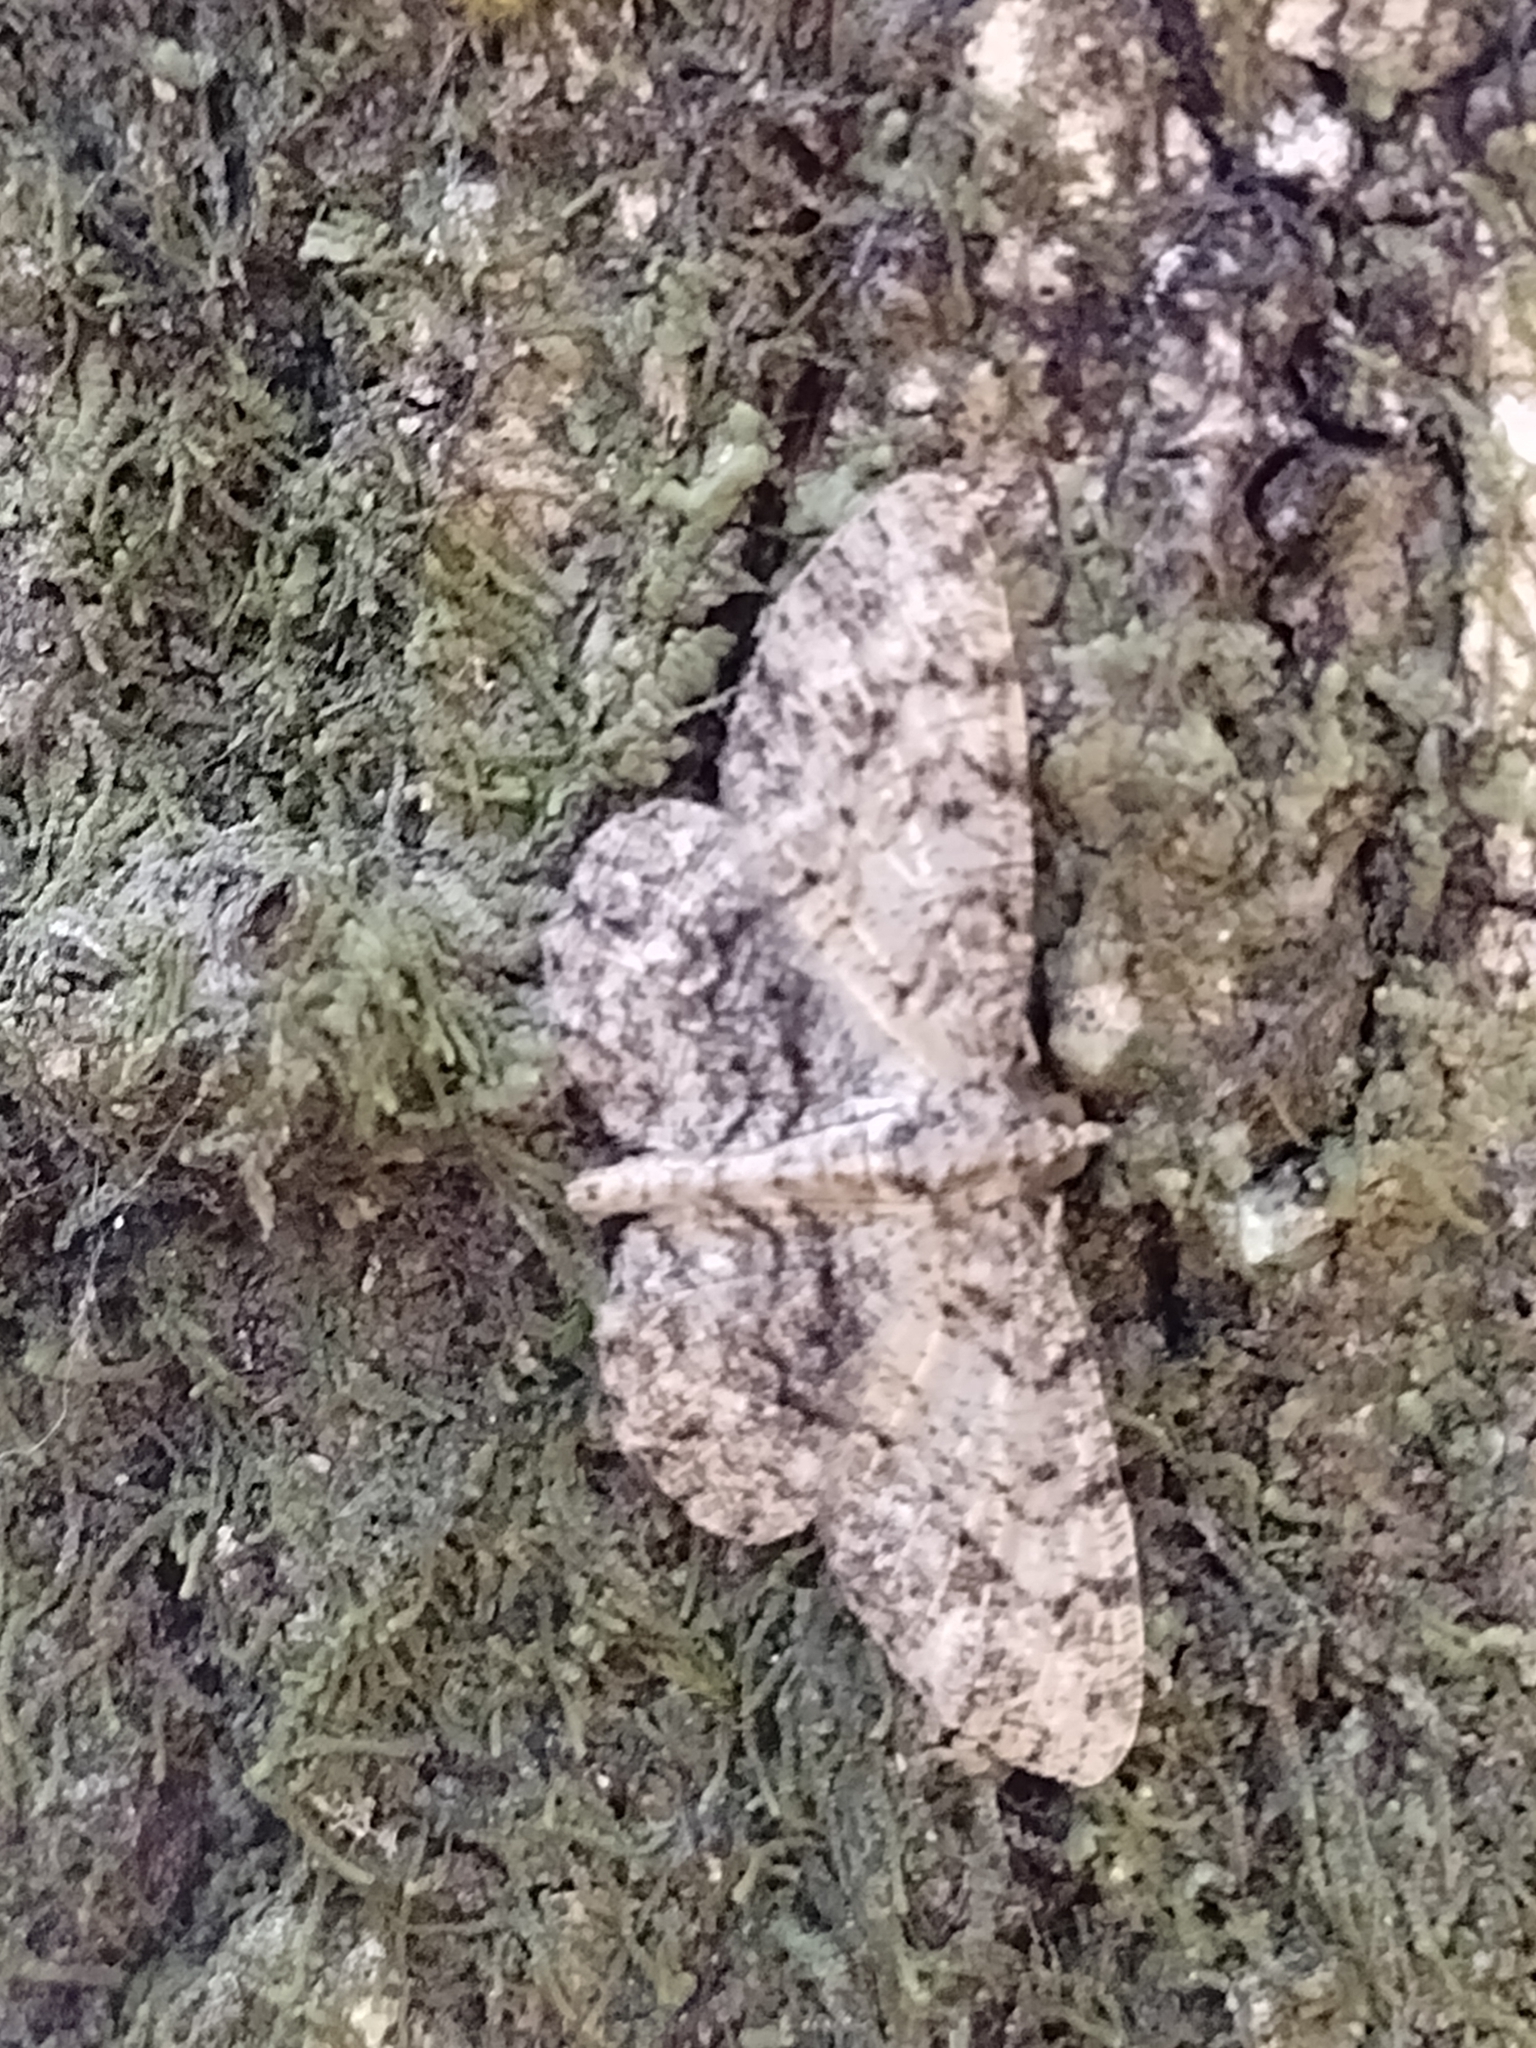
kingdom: Animalia
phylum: Arthropoda
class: Insecta
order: Lepidoptera
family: Geometridae
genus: Protoboarmia
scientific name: Protoboarmia porcelaria
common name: Porcelain gray
